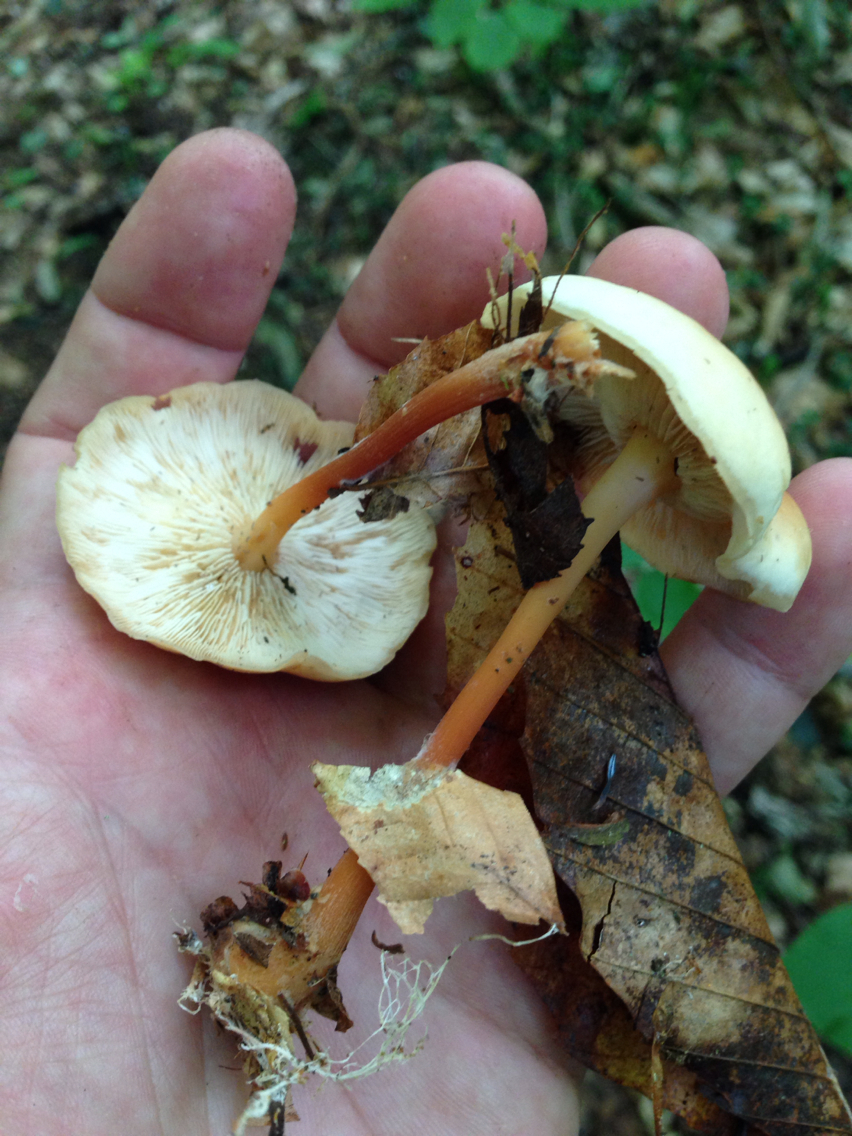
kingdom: Fungi
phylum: Basidiomycota
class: Agaricomycetes
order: Agaricales
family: Omphalotaceae
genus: Gymnopus
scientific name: Gymnopus erythropus
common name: Redleg toughshank
